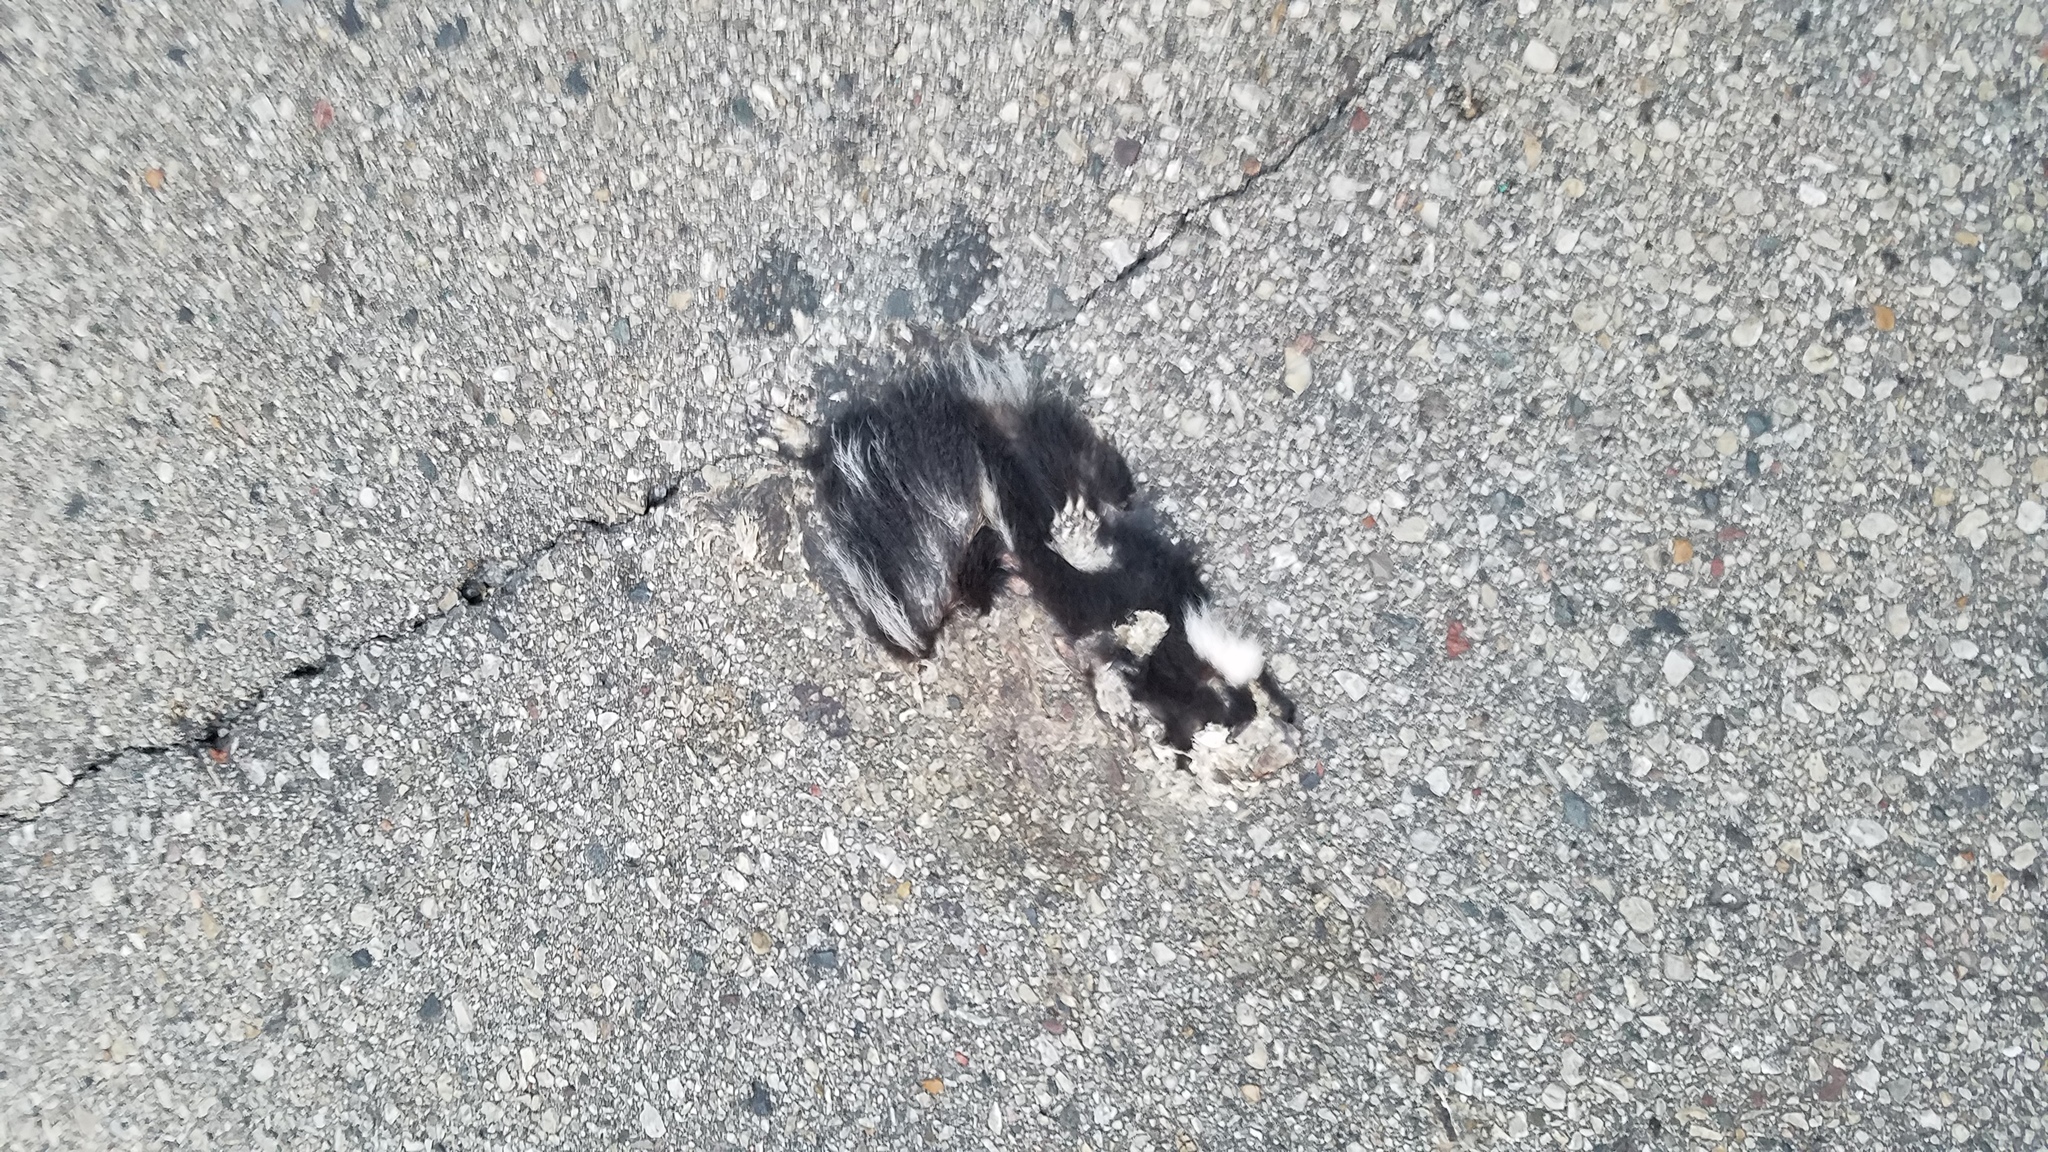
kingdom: Animalia
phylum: Chordata
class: Mammalia
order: Carnivora
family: Mephitidae
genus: Mephitis
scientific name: Mephitis mephitis
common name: Striped skunk
